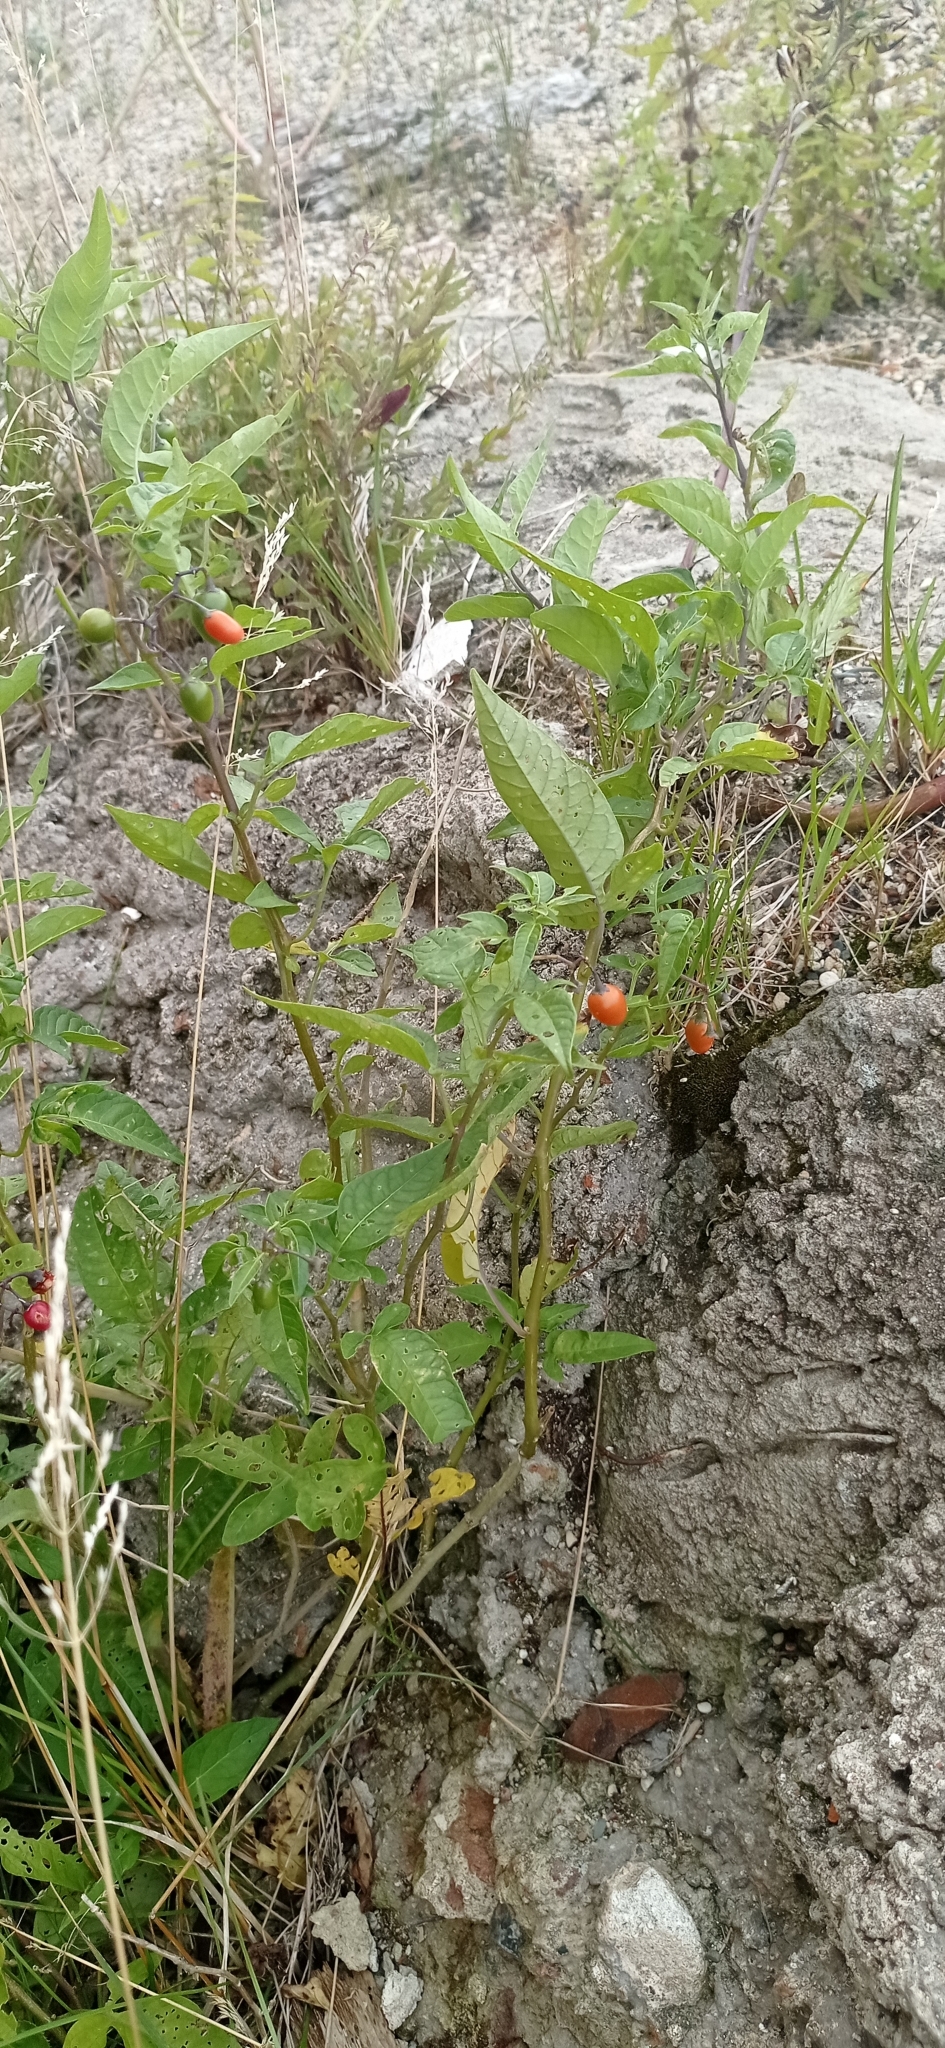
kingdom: Plantae
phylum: Tracheophyta
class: Magnoliopsida
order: Solanales
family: Solanaceae
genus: Solanum
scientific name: Solanum dulcamara
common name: Climbing nightshade
